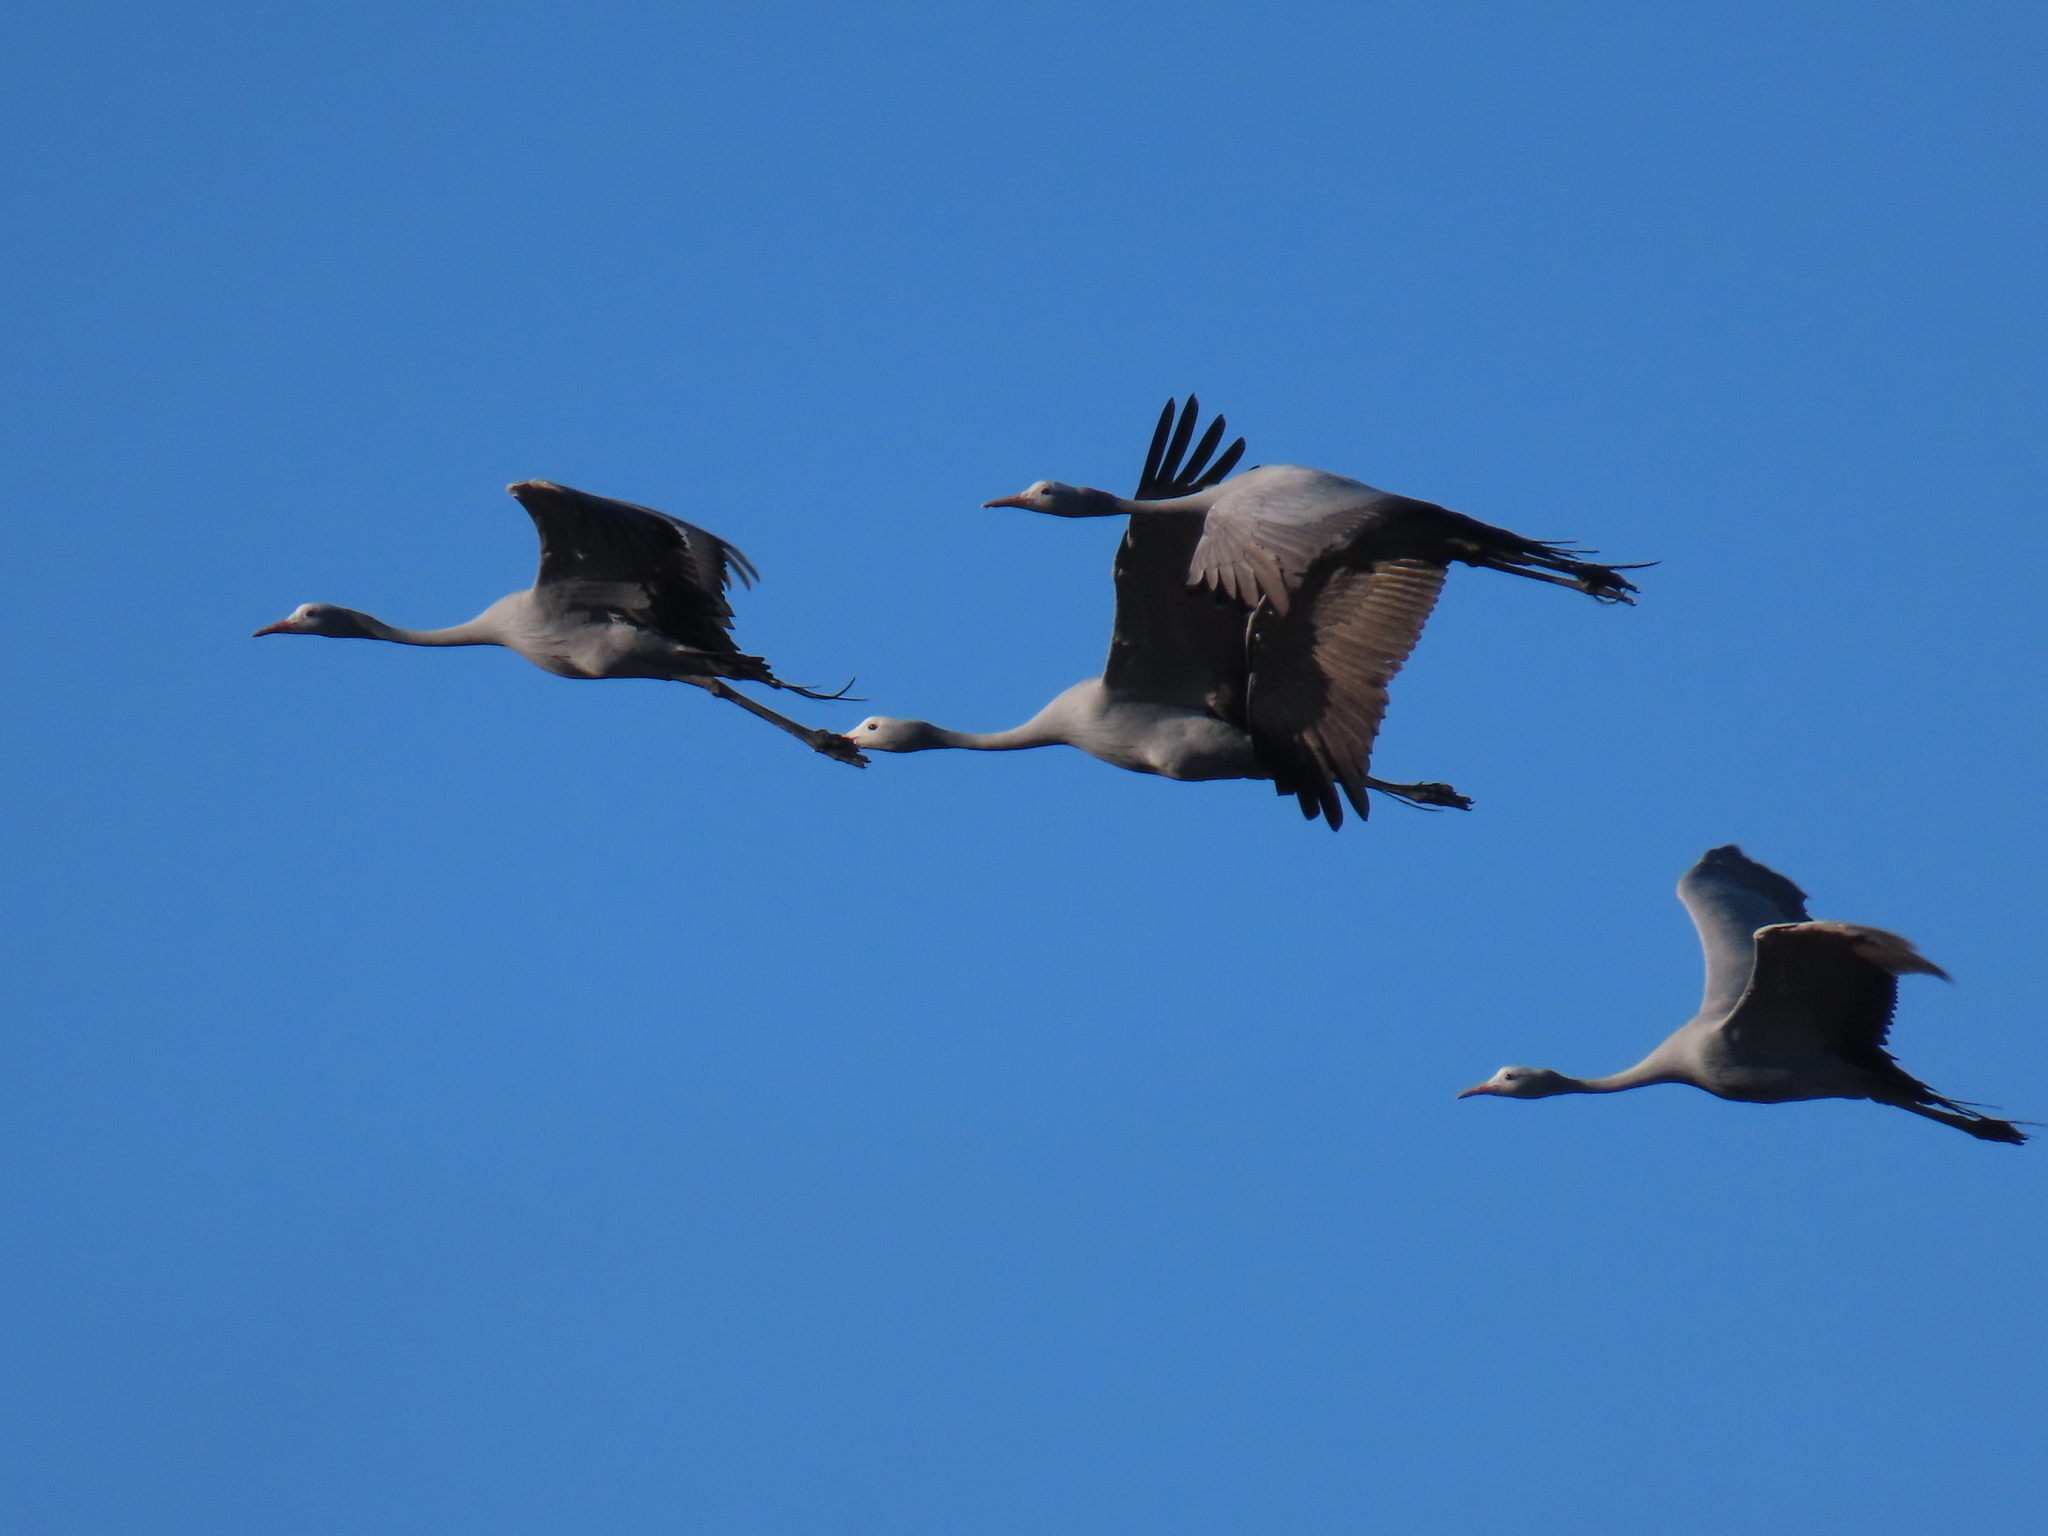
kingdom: Animalia
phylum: Chordata
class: Aves
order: Gruiformes
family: Gruidae
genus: Anthropoides
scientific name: Anthropoides paradiseus
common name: Blue crane
